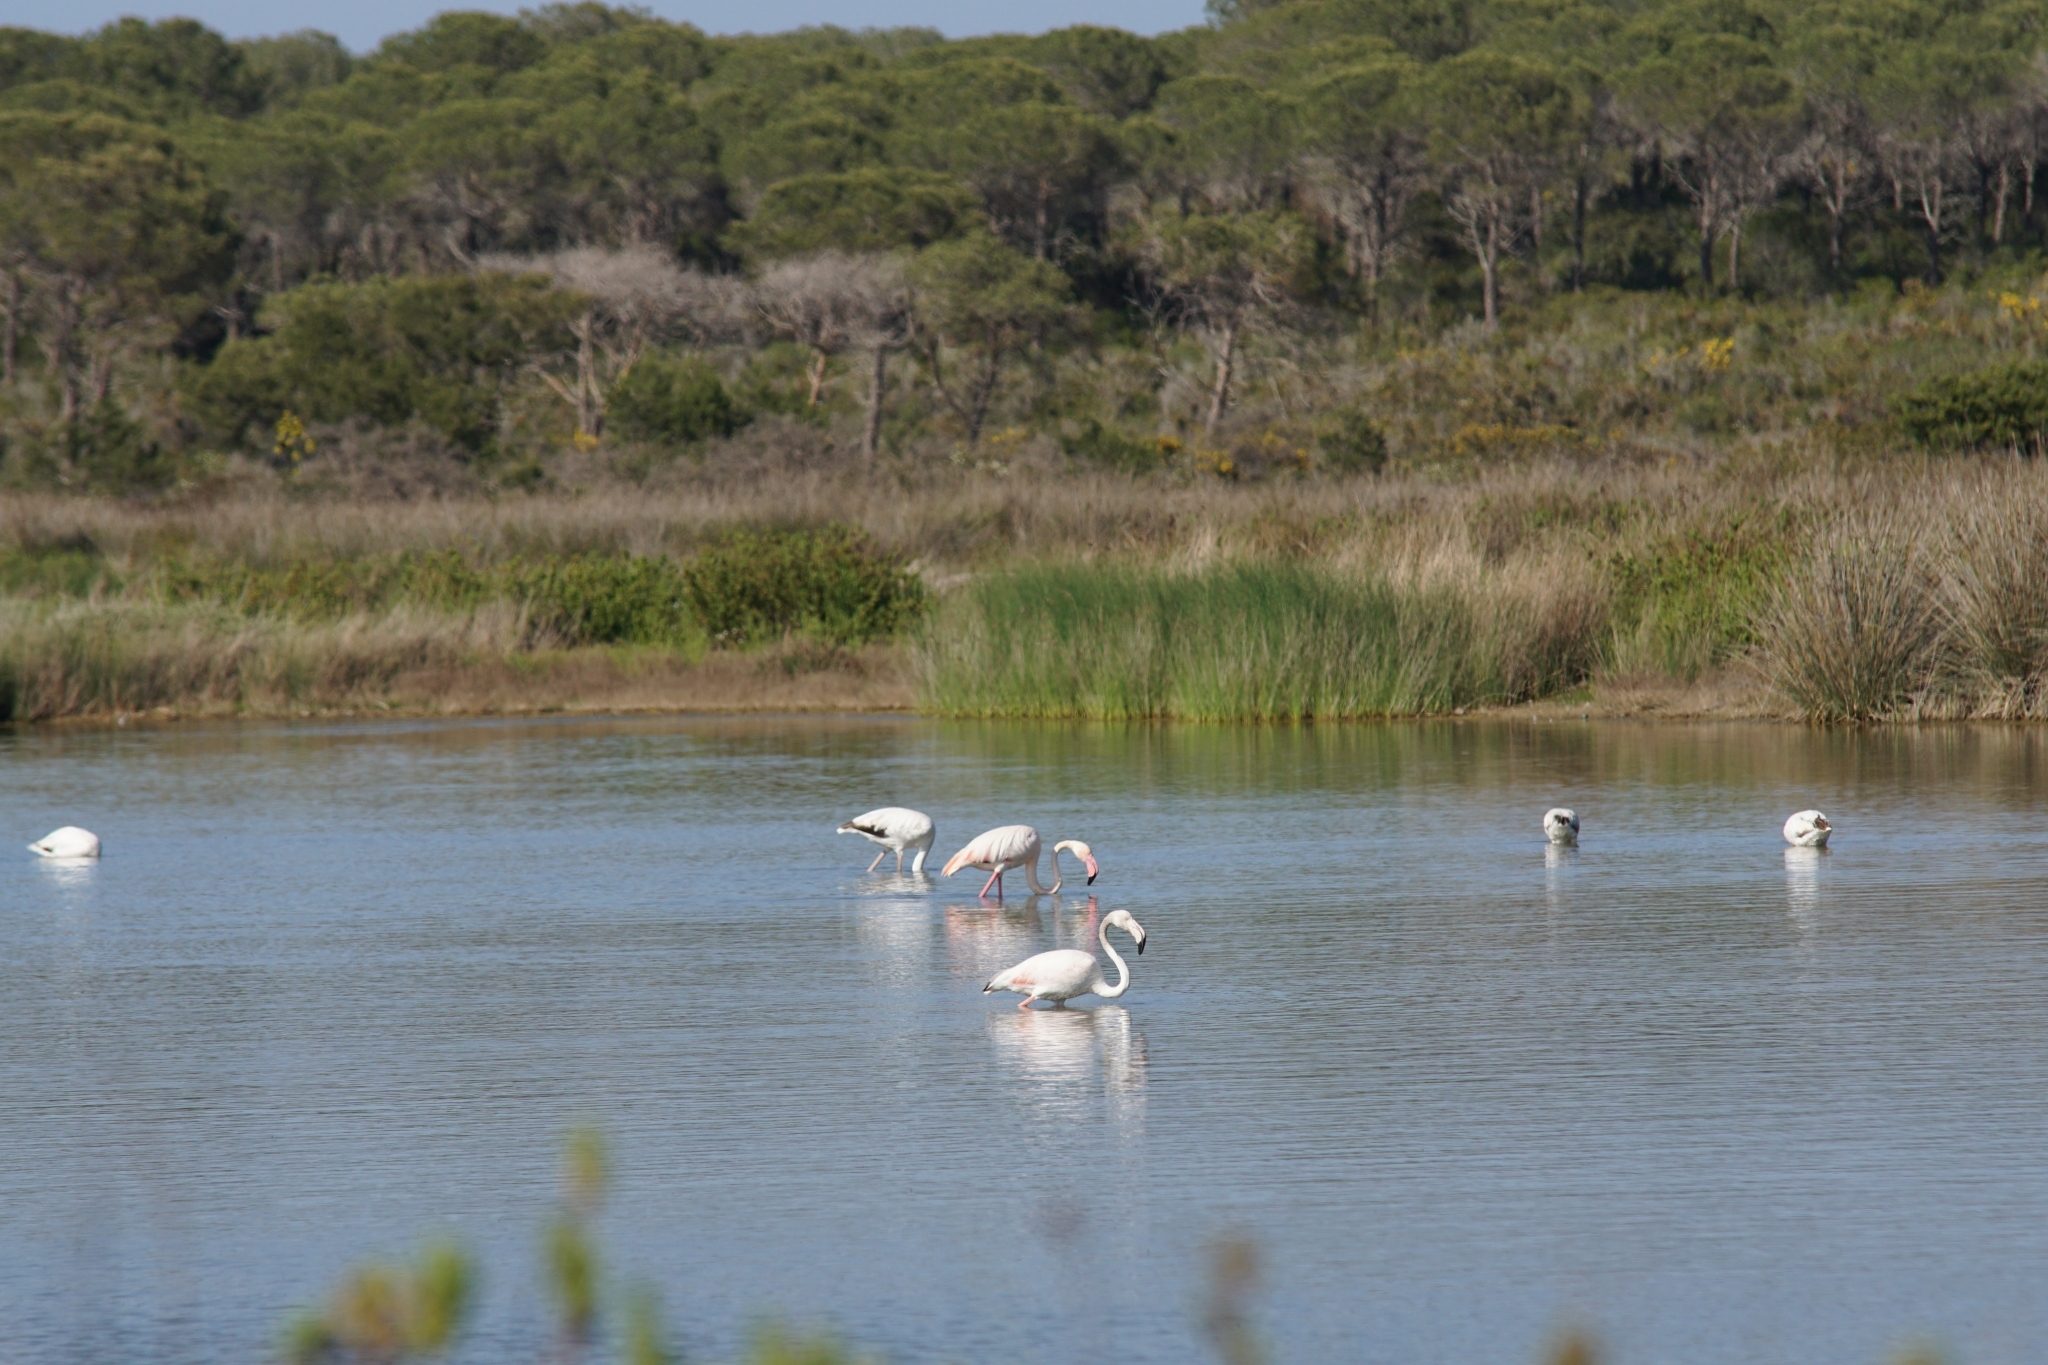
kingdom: Animalia
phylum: Chordata
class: Aves
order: Phoenicopteriformes
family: Phoenicopteridae
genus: Phoenicopterus
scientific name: Phoenicopterus roseus
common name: Greater flamingo
